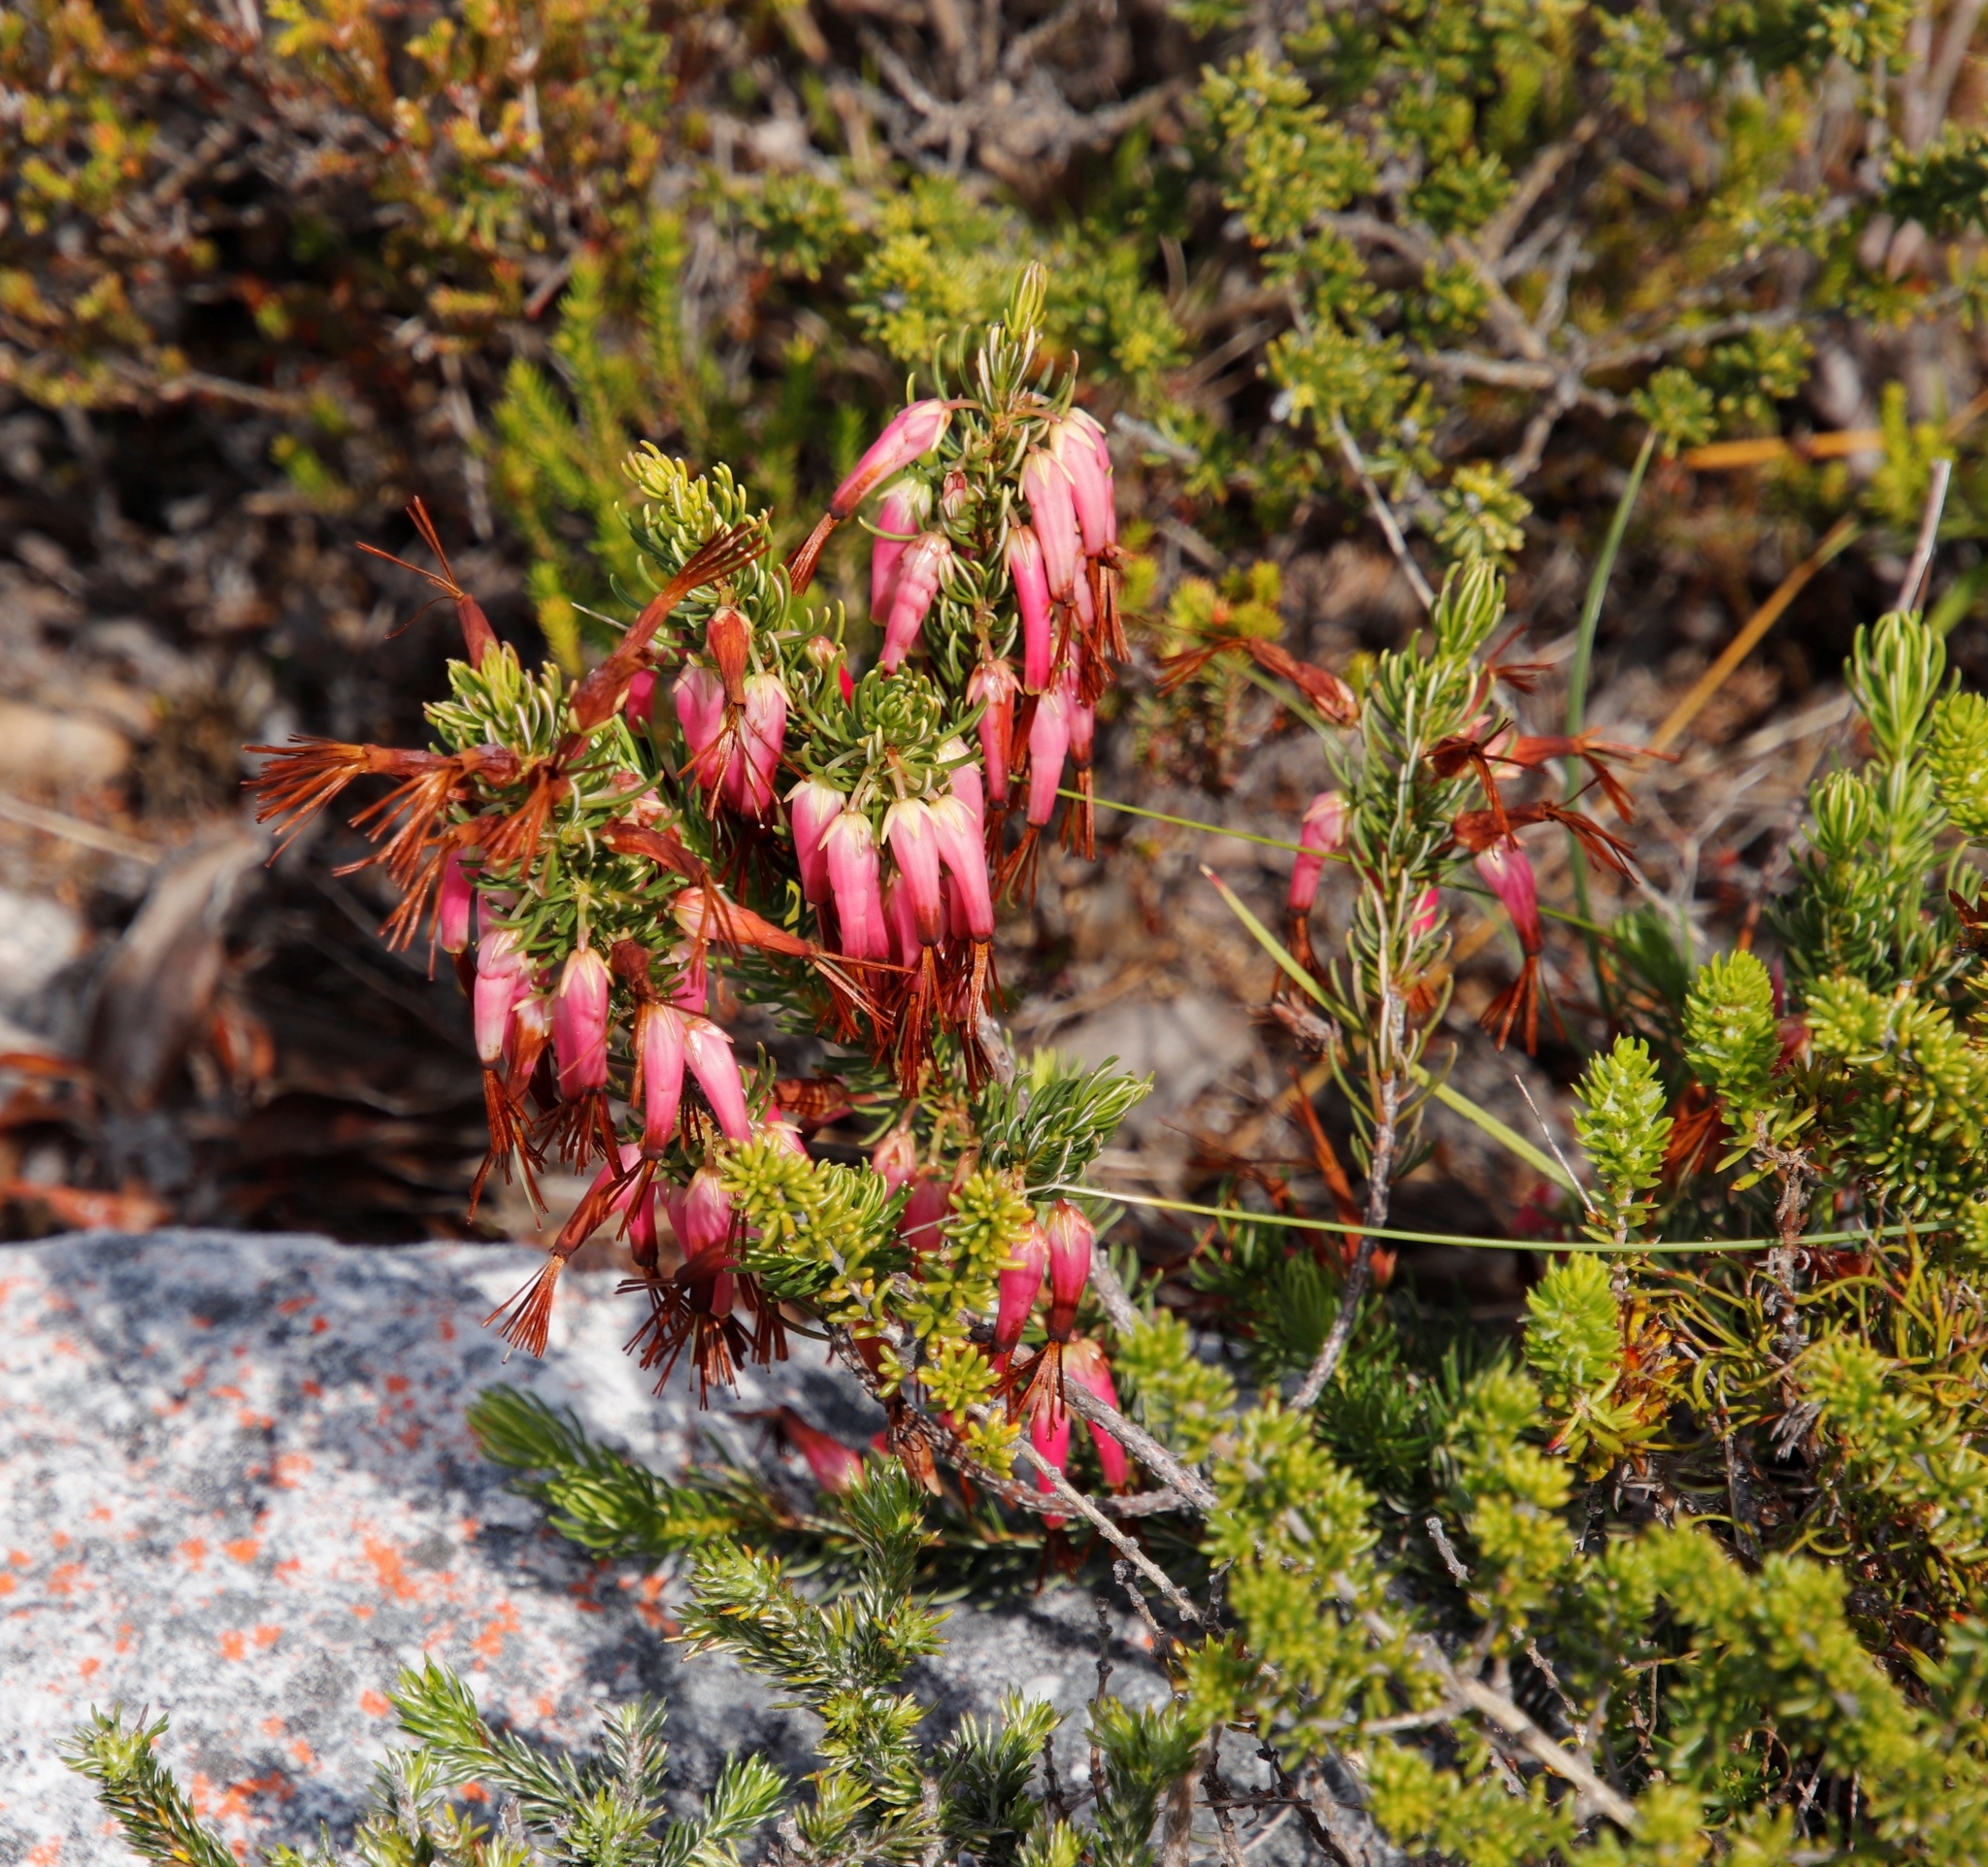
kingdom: Plantae
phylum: Tracheophyta
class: Magnoliopsida
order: Ericales
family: Ericaceae
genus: Erica
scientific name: Erica plukenetii
